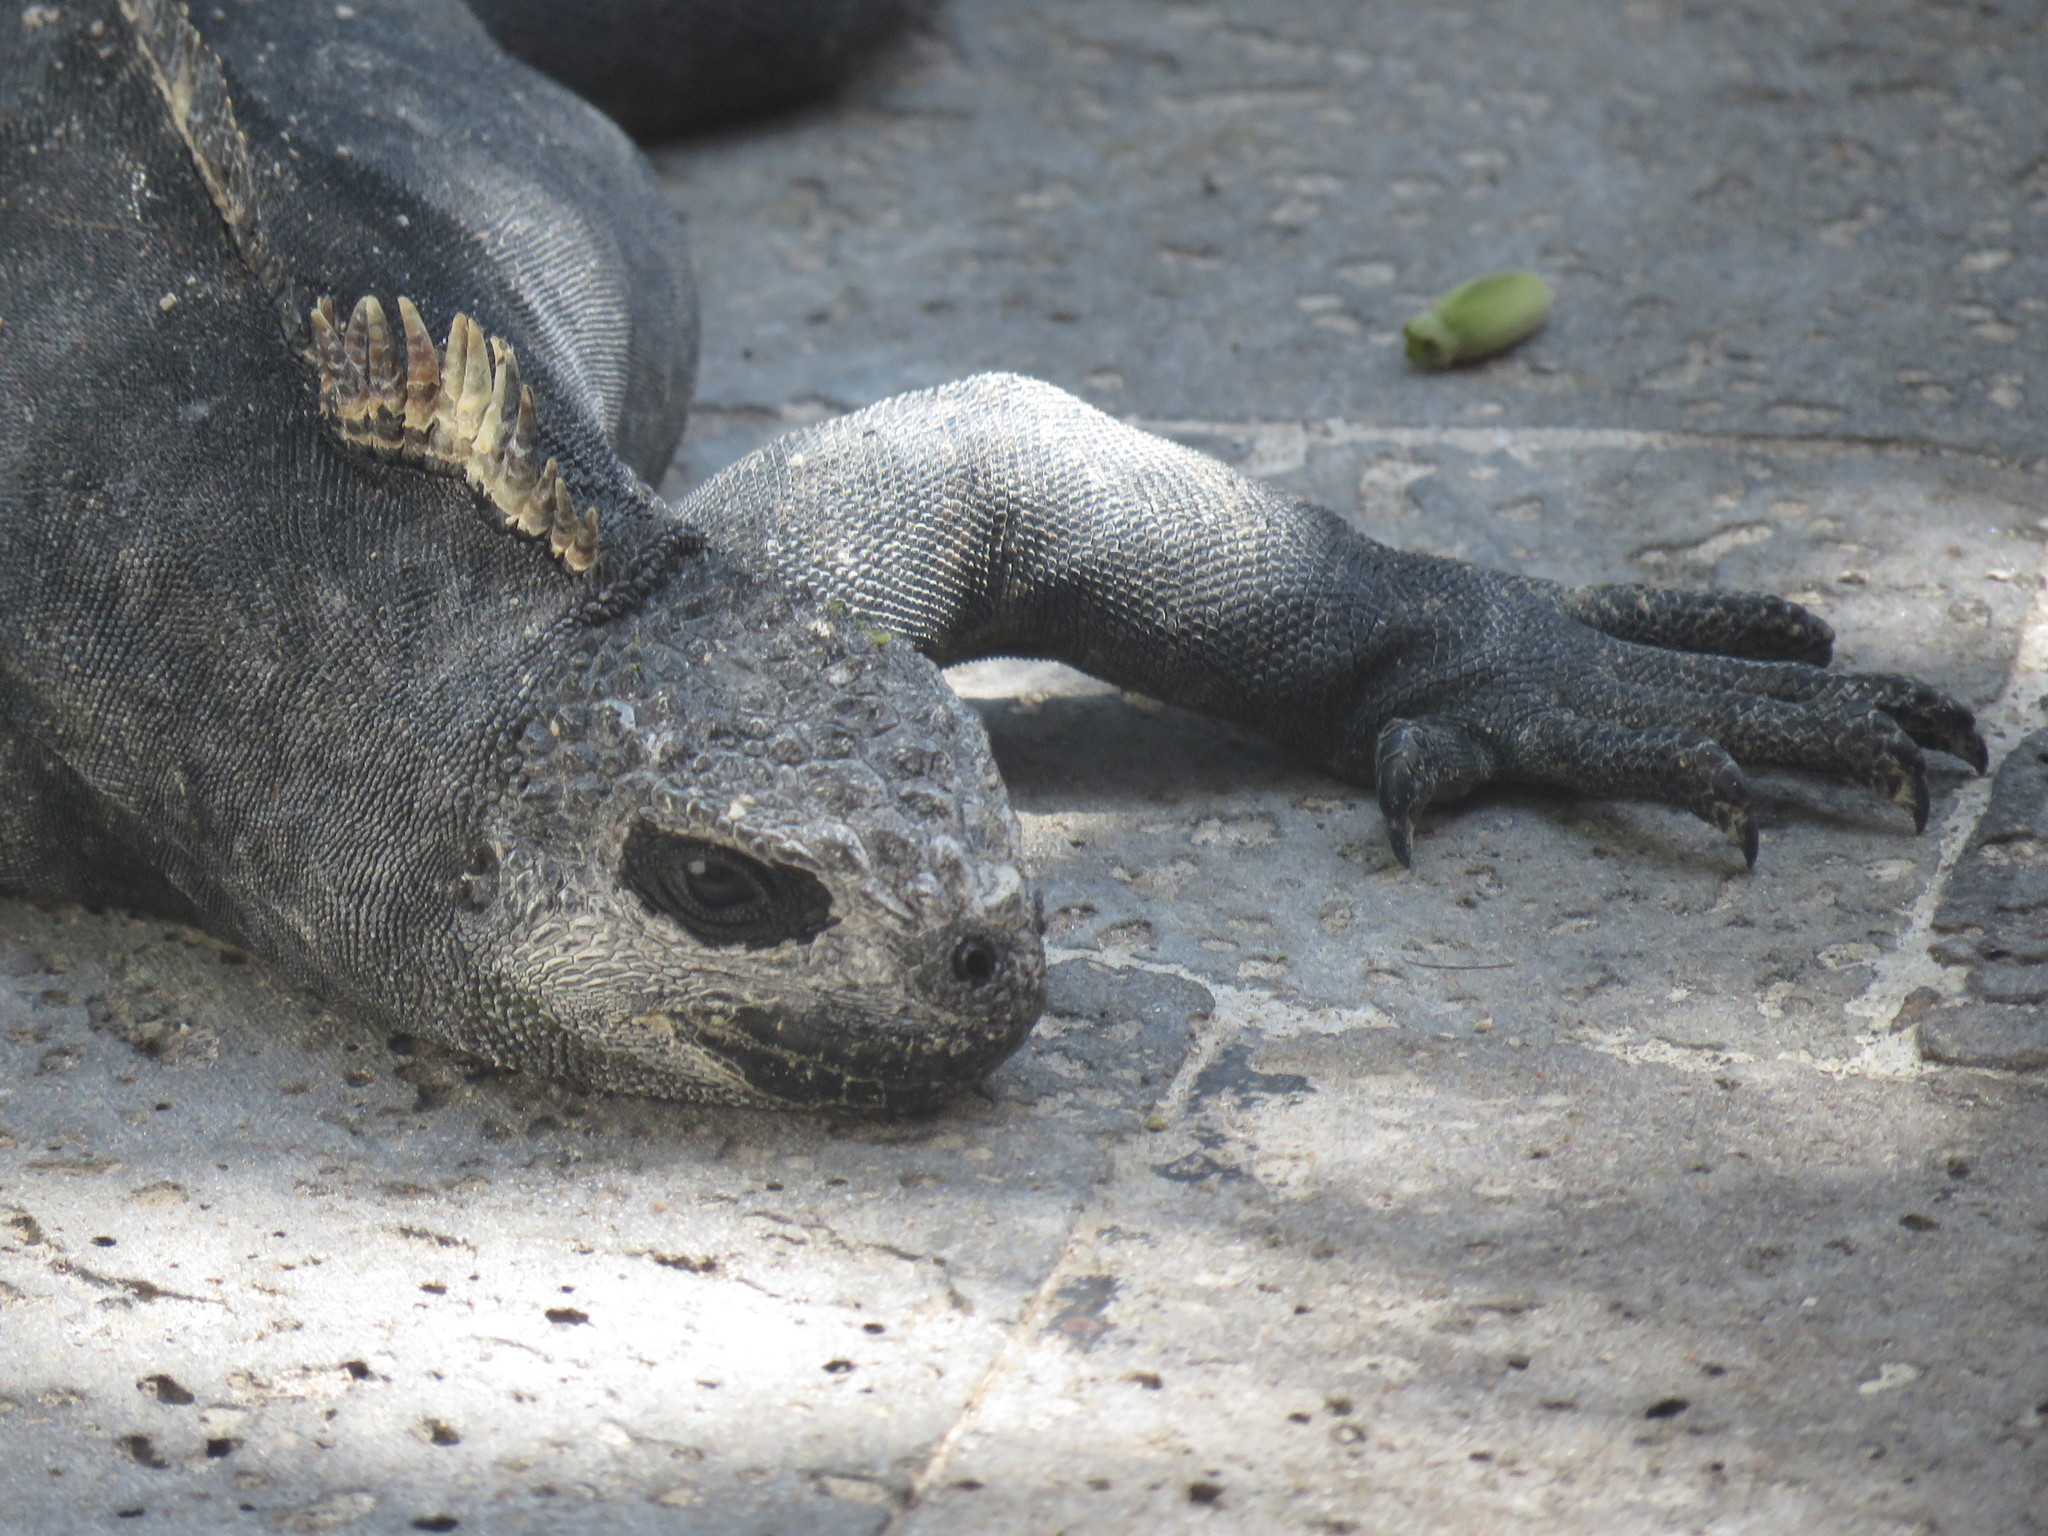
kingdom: Animalia
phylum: Chordata
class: Squamata
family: Iguanidae
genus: Amblyrhynchus
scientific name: Amblyrhynchus cristatus
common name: Marine iguana
